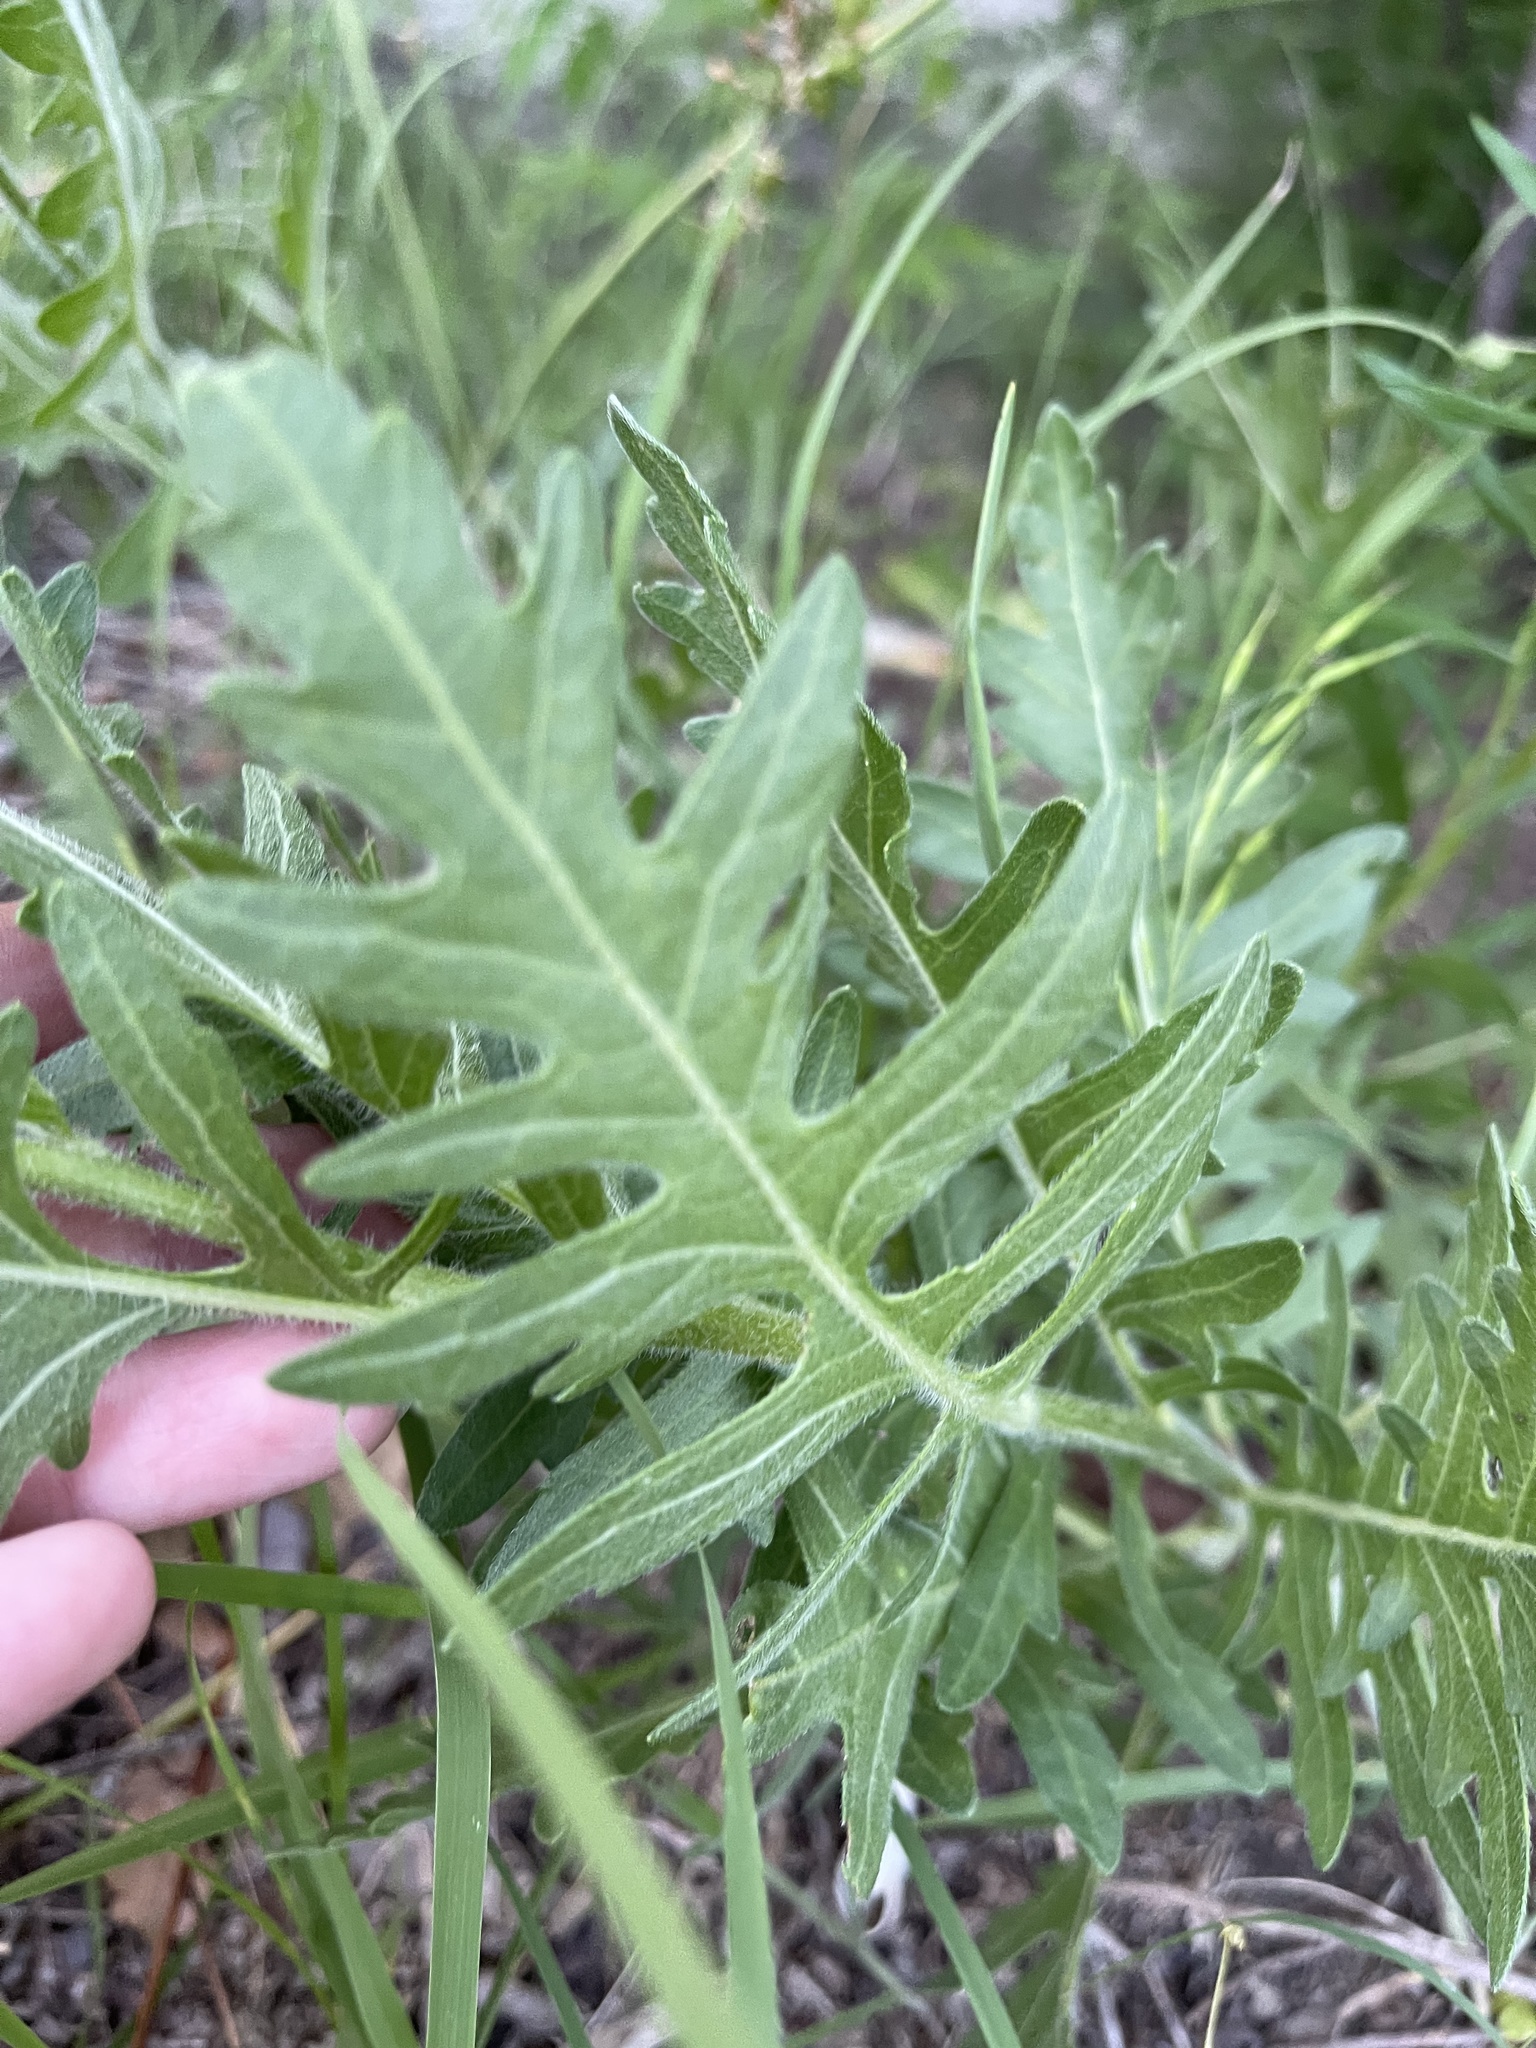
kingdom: Plantae
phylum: Tracheophyta
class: Magnoliopsida
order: Asterales
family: Asteraceae
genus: Silphium
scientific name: Silphium laciniatum
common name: Polarplant
